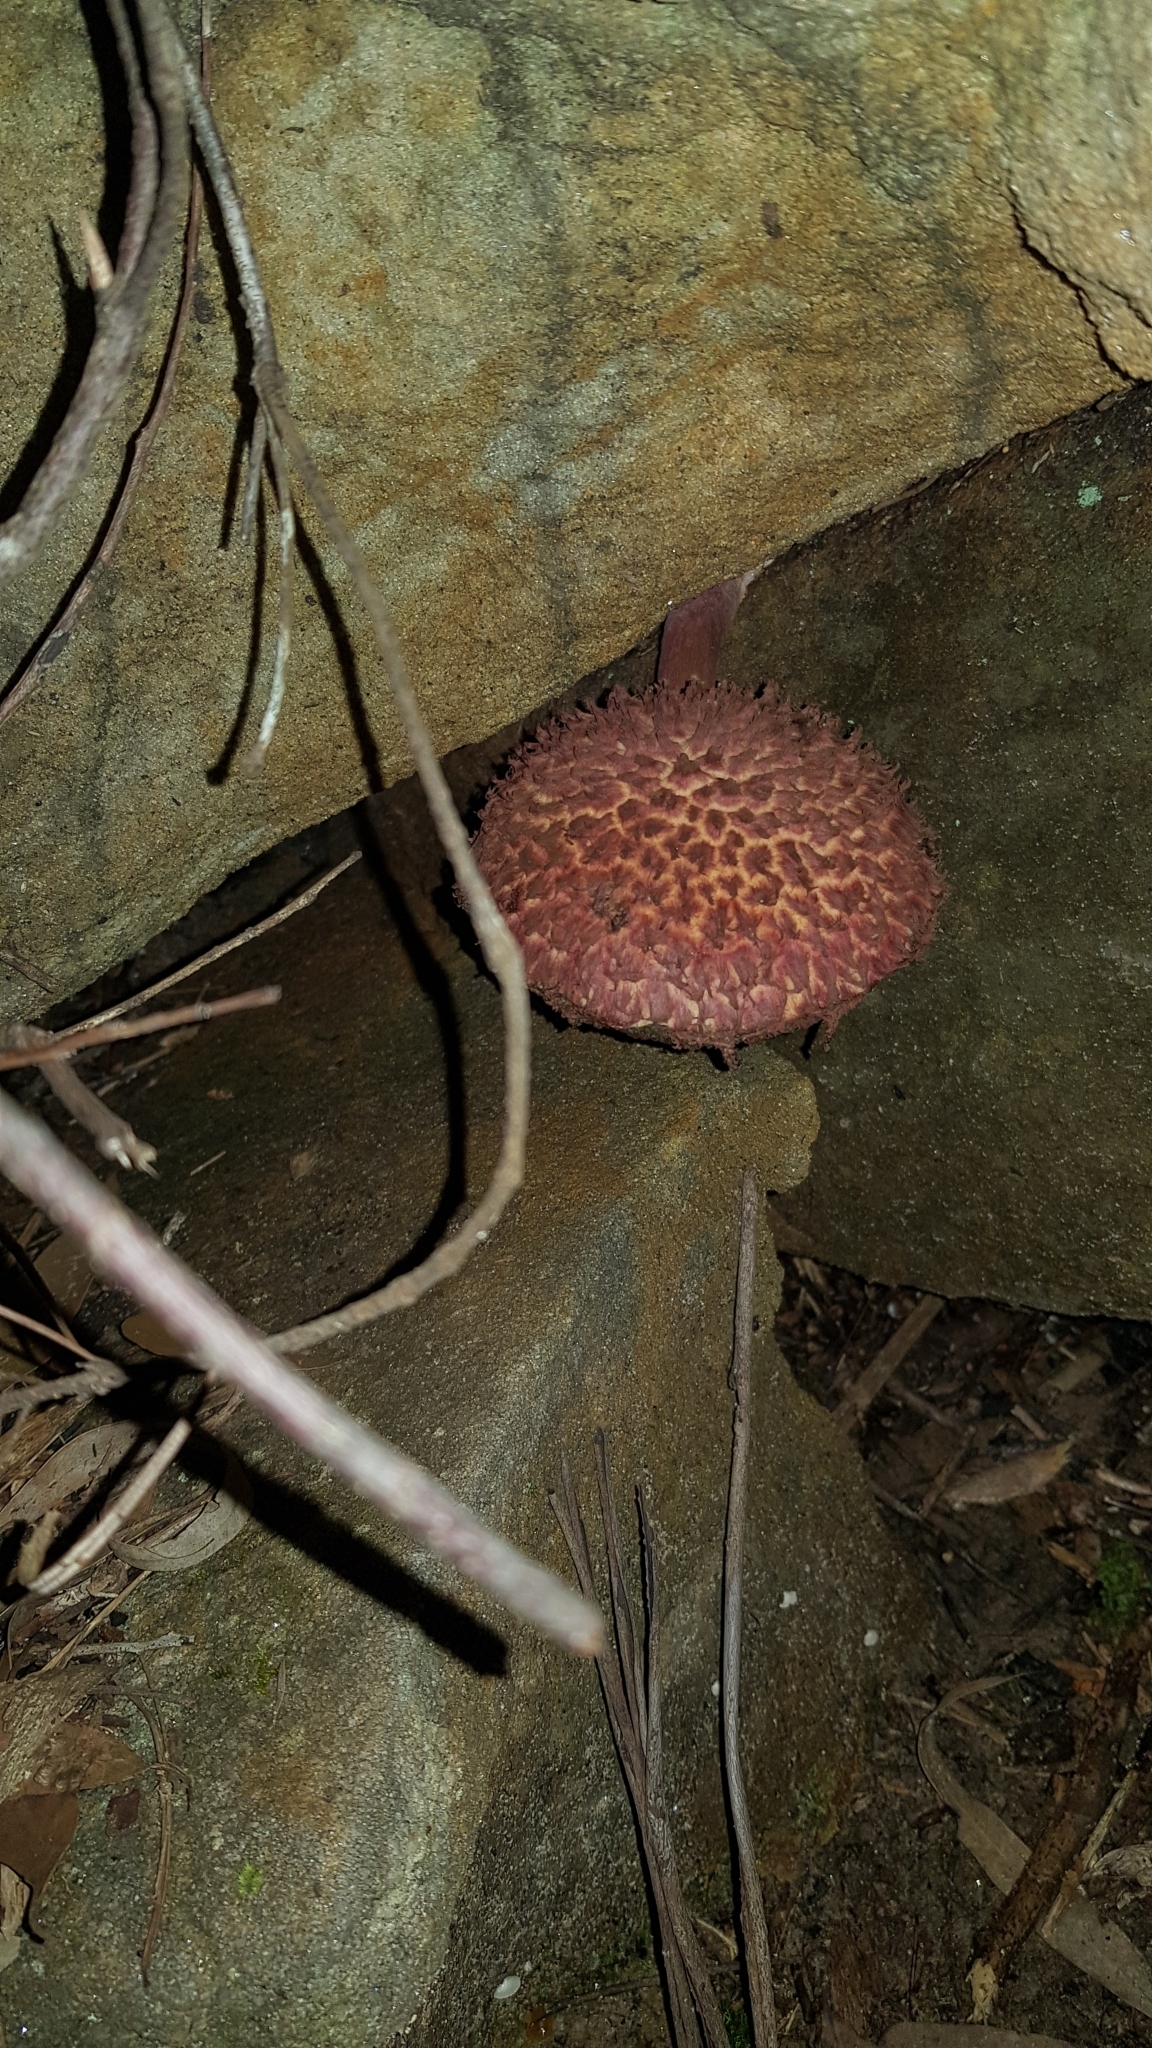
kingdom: Fungi
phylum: Basidiomycota
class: Agaricomycetes
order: Boletales
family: Boletaceae
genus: Boletellus
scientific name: Boletellus emodensis
